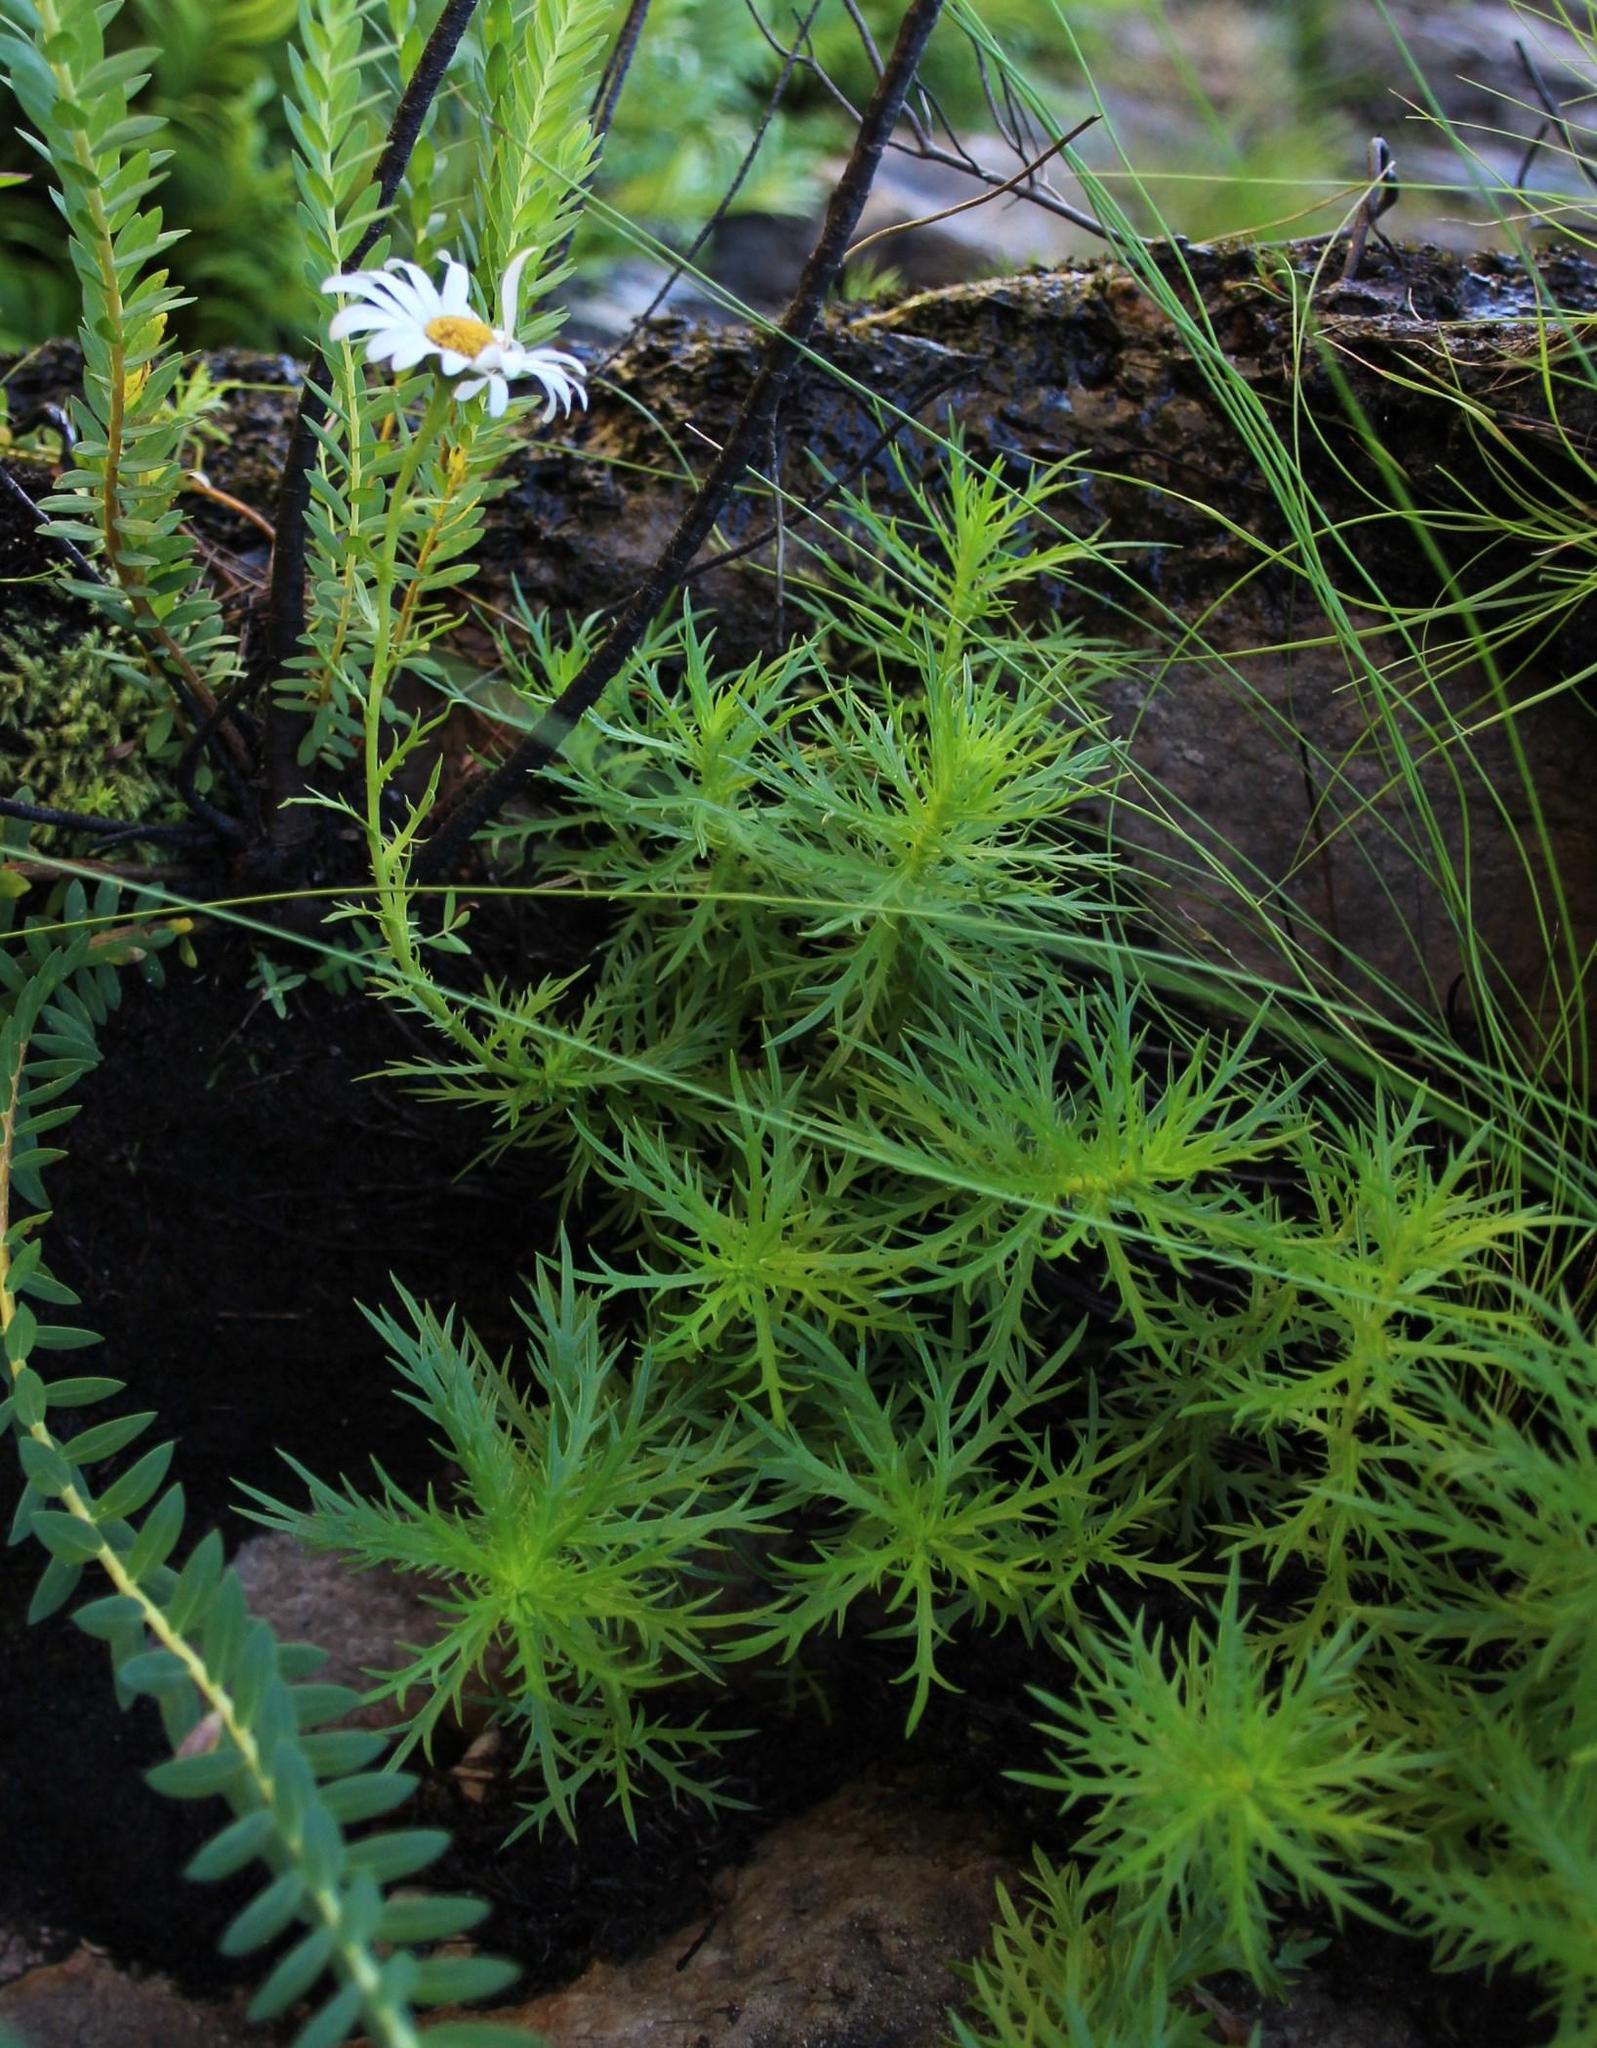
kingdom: Plantae
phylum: Tracheophyta
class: Magnoliopsida
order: Asterales
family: Asteraceae
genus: Osmitopsis
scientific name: Osmitopsis pinnatifida
